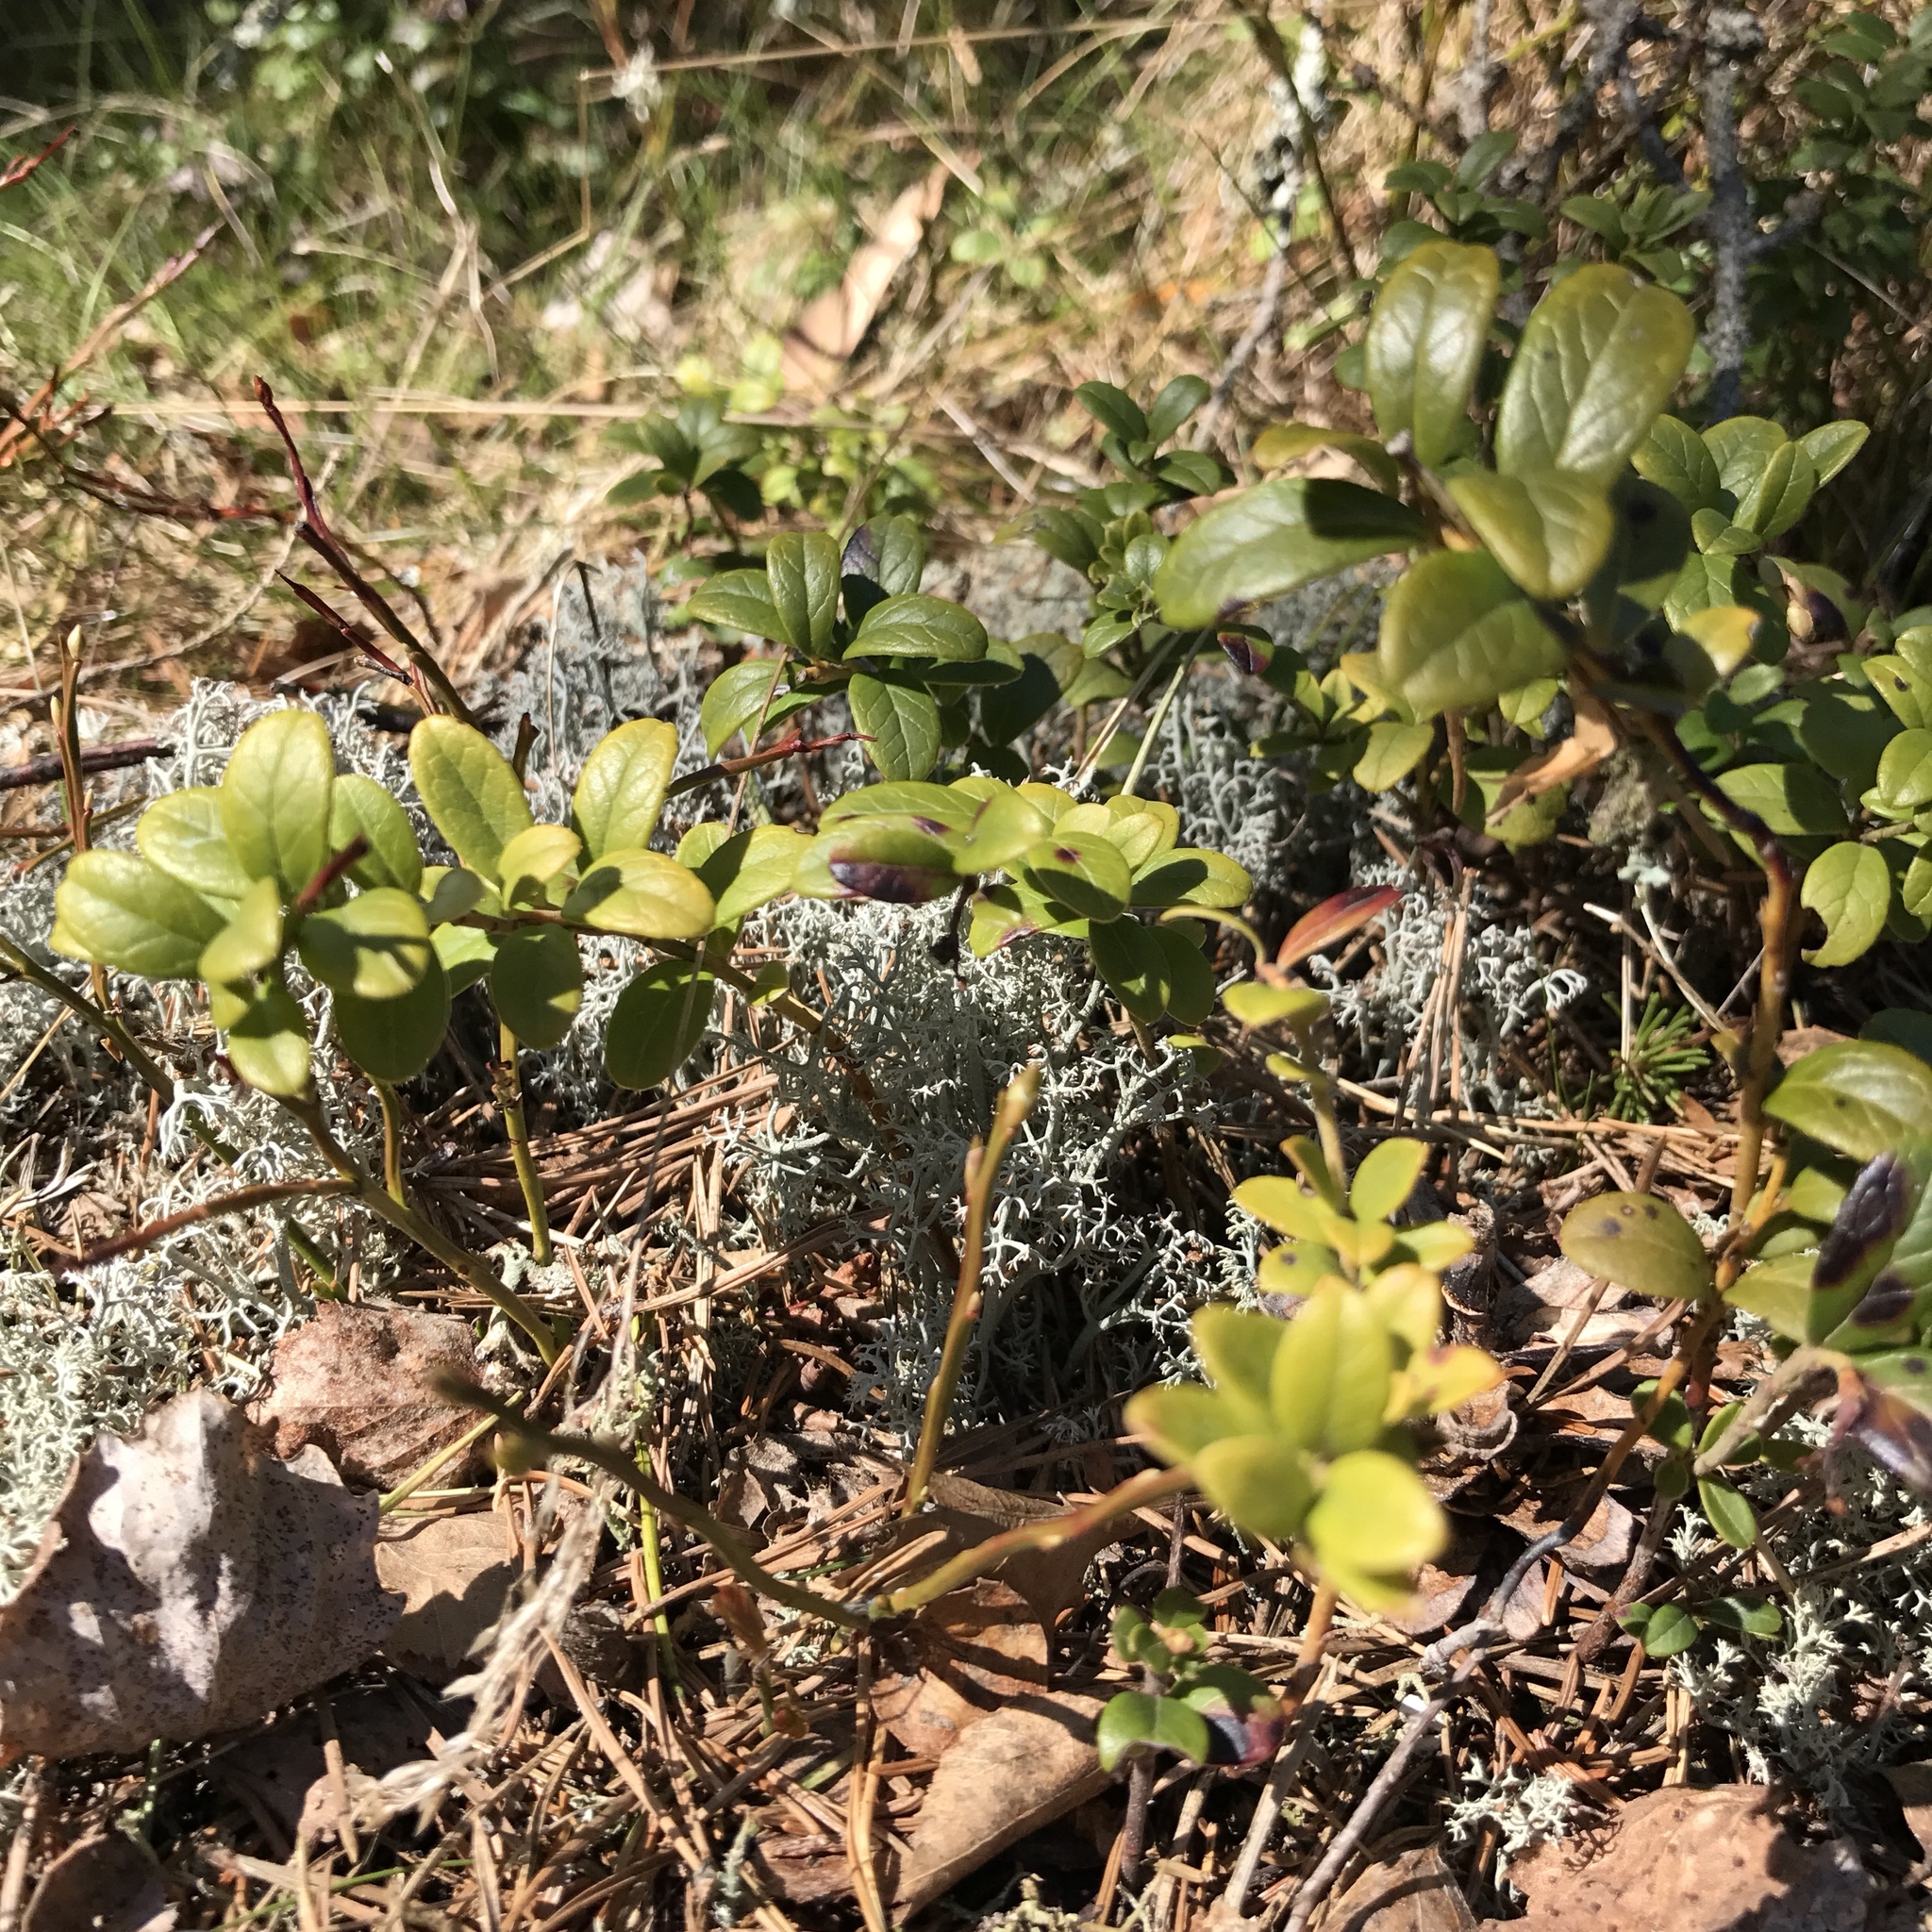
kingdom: Plantae
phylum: Tracheophyta
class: Magnoliopsida
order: Ericales
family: Ericaceae
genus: Vaccinium
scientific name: Vaccinium vitis-idaea
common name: Cowberry
